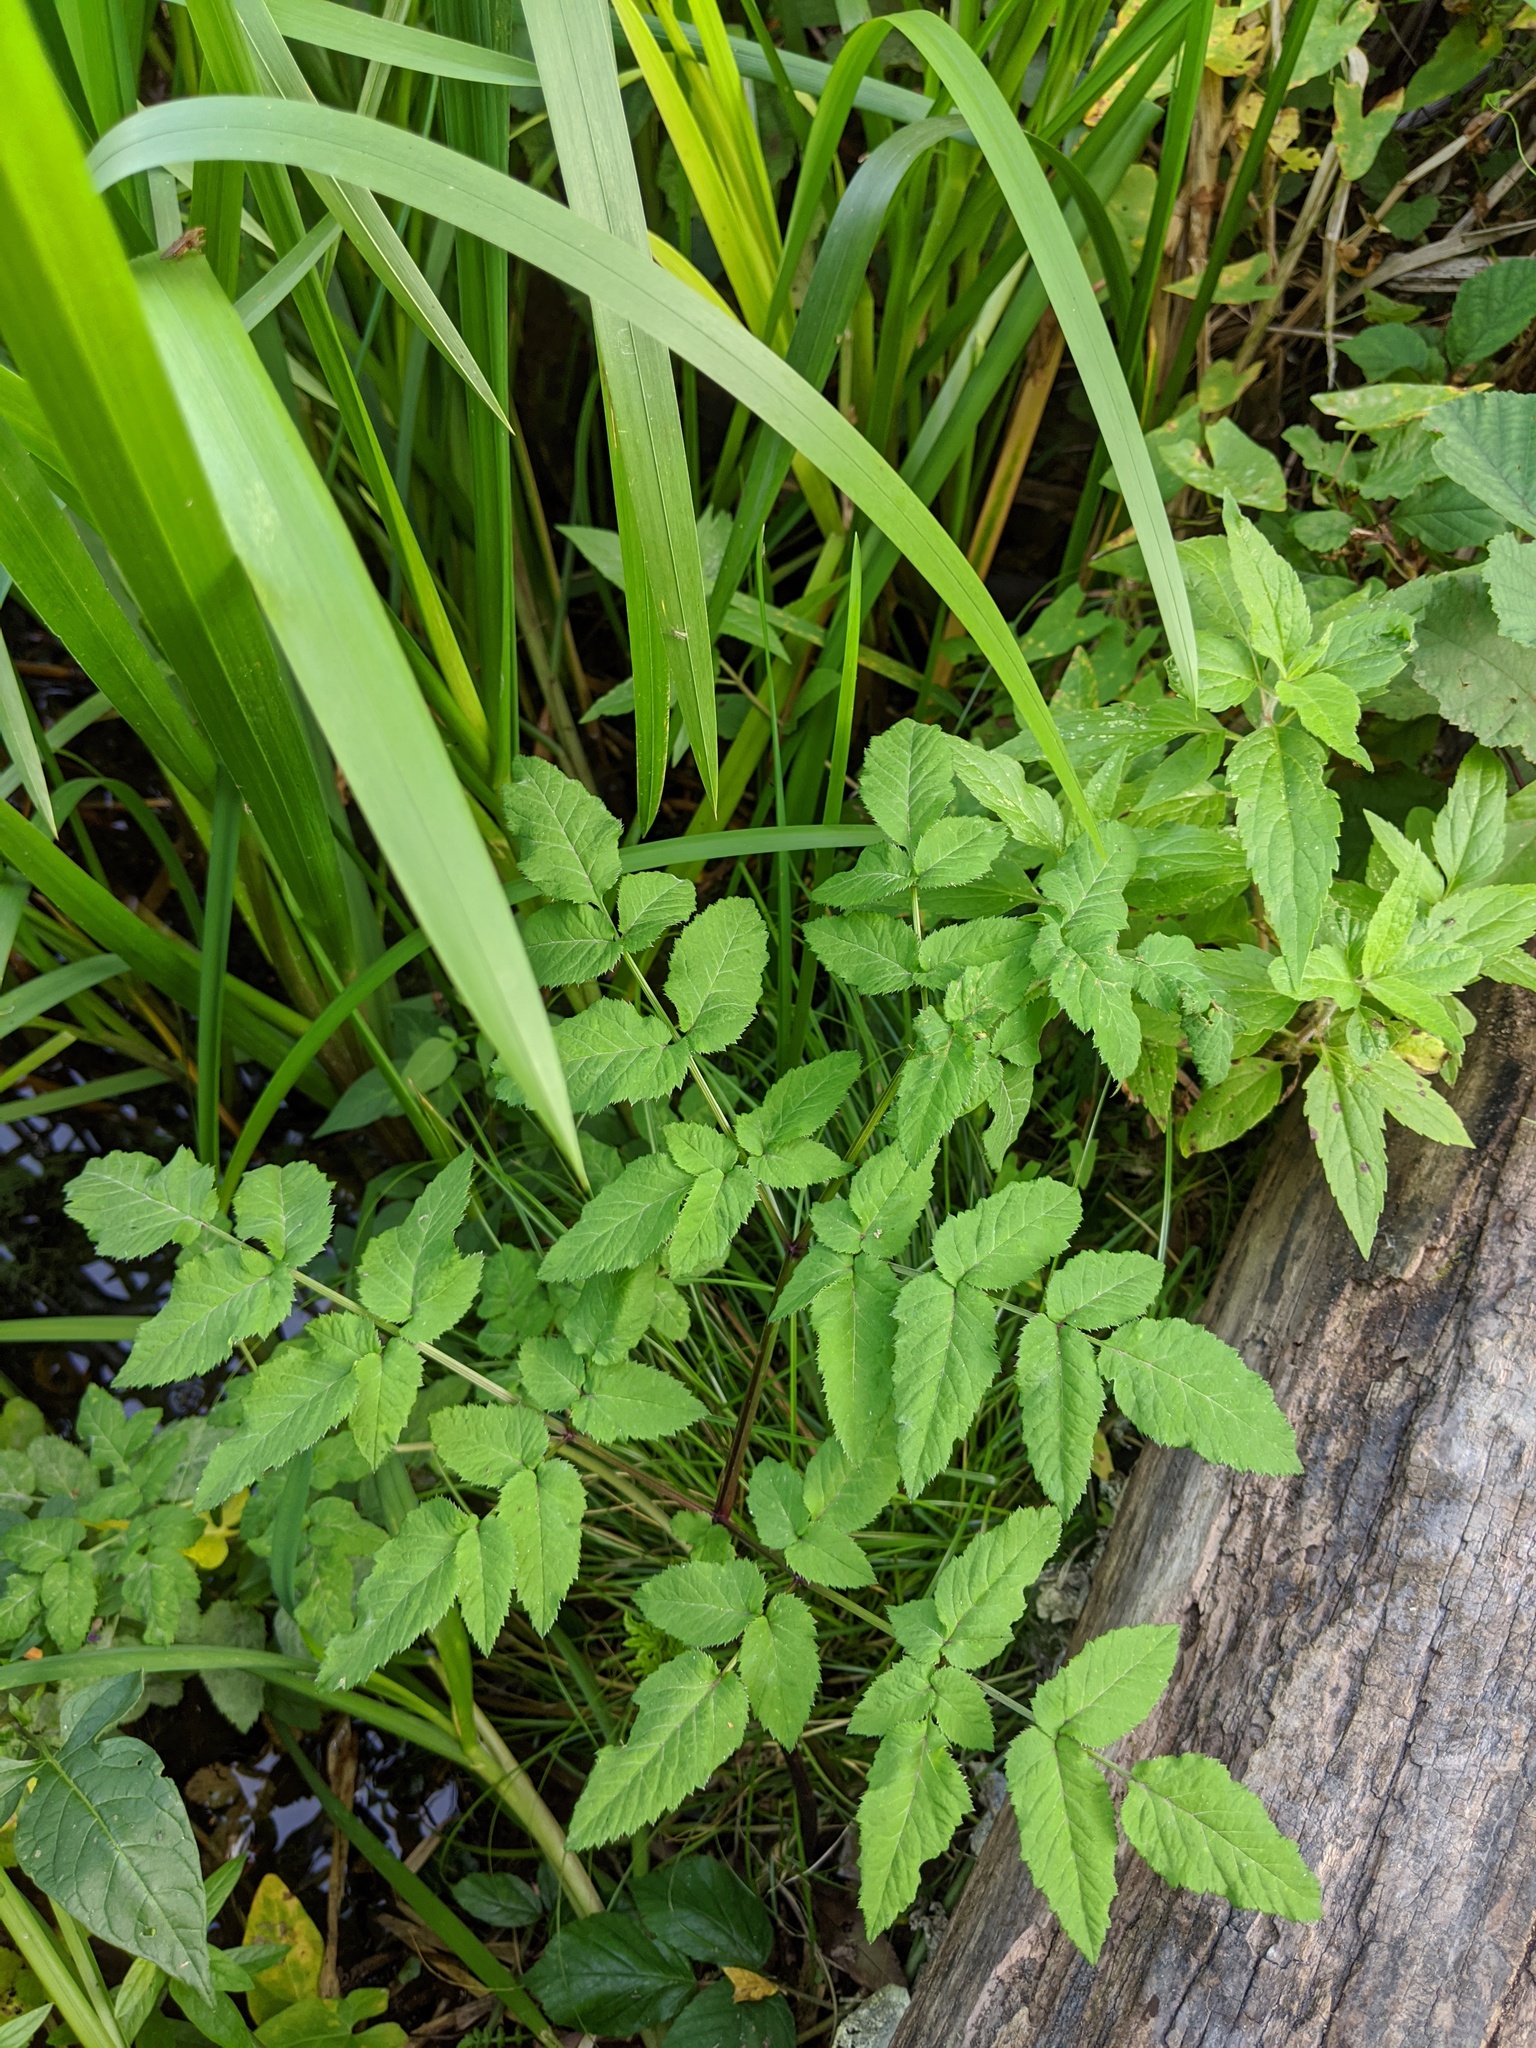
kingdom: Plantae
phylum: Tracheophyta
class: Magnoliopsida
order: Apiales
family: Apiaceae
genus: Angelica
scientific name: Angelica sylvestris
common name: Wild angelica
